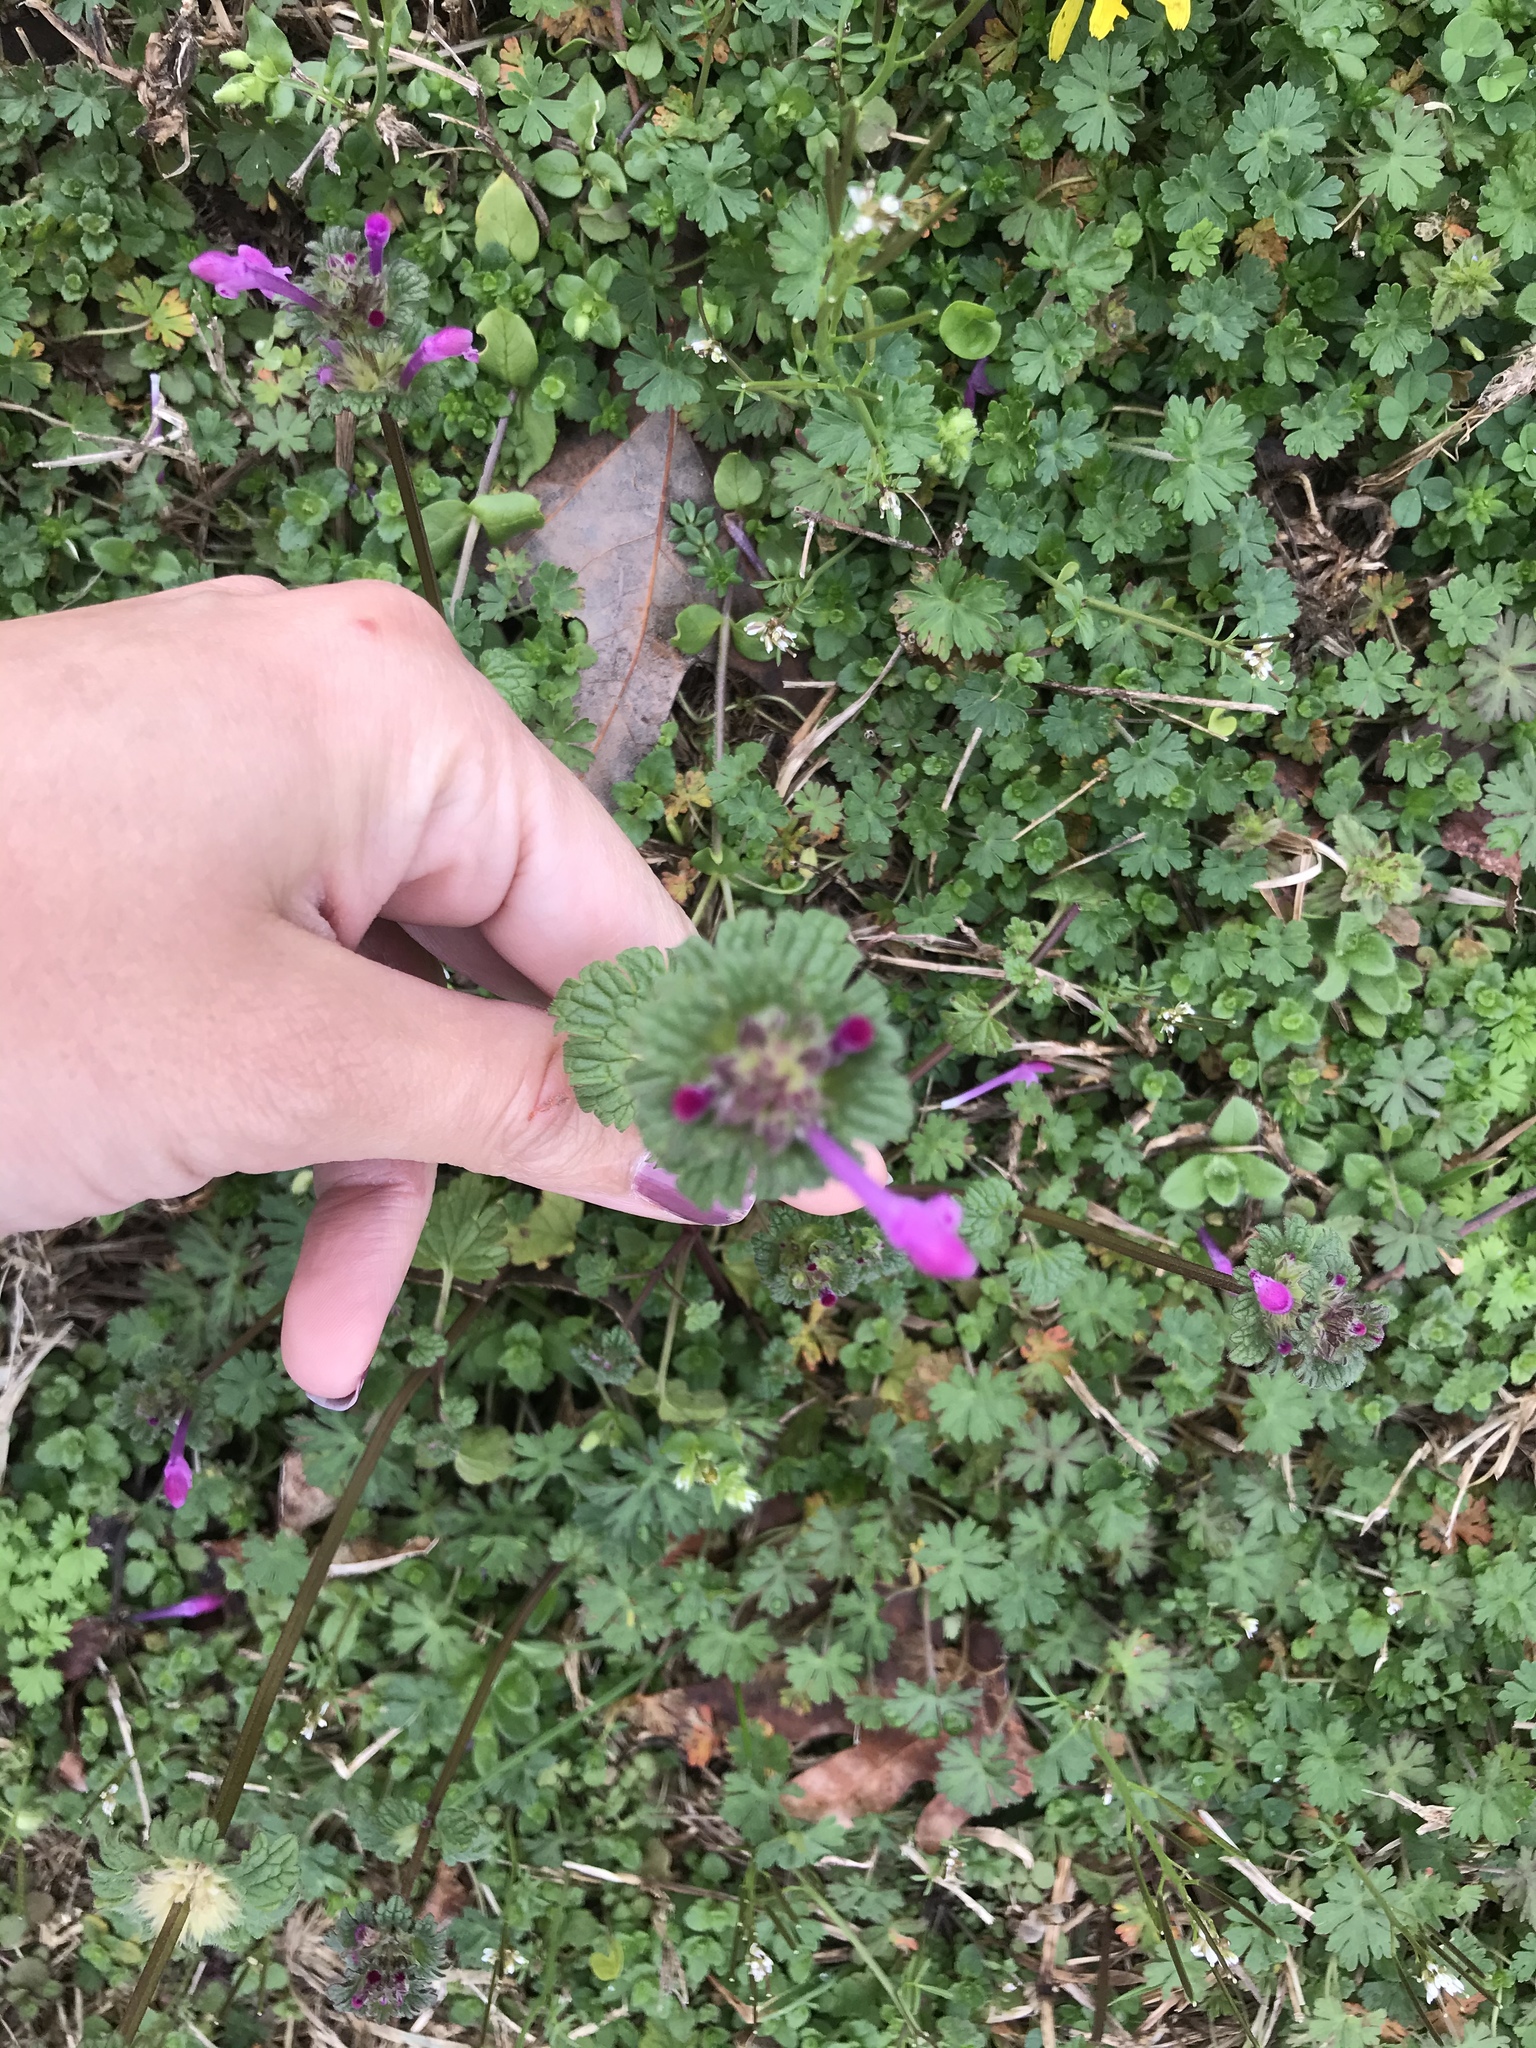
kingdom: Plantae
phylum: Tracheophyta
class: Magnoliopsida
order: Lamiales
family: Lamiaceae
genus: Lamium
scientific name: Lamium amplexicaule
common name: Henbit dead-nettle
